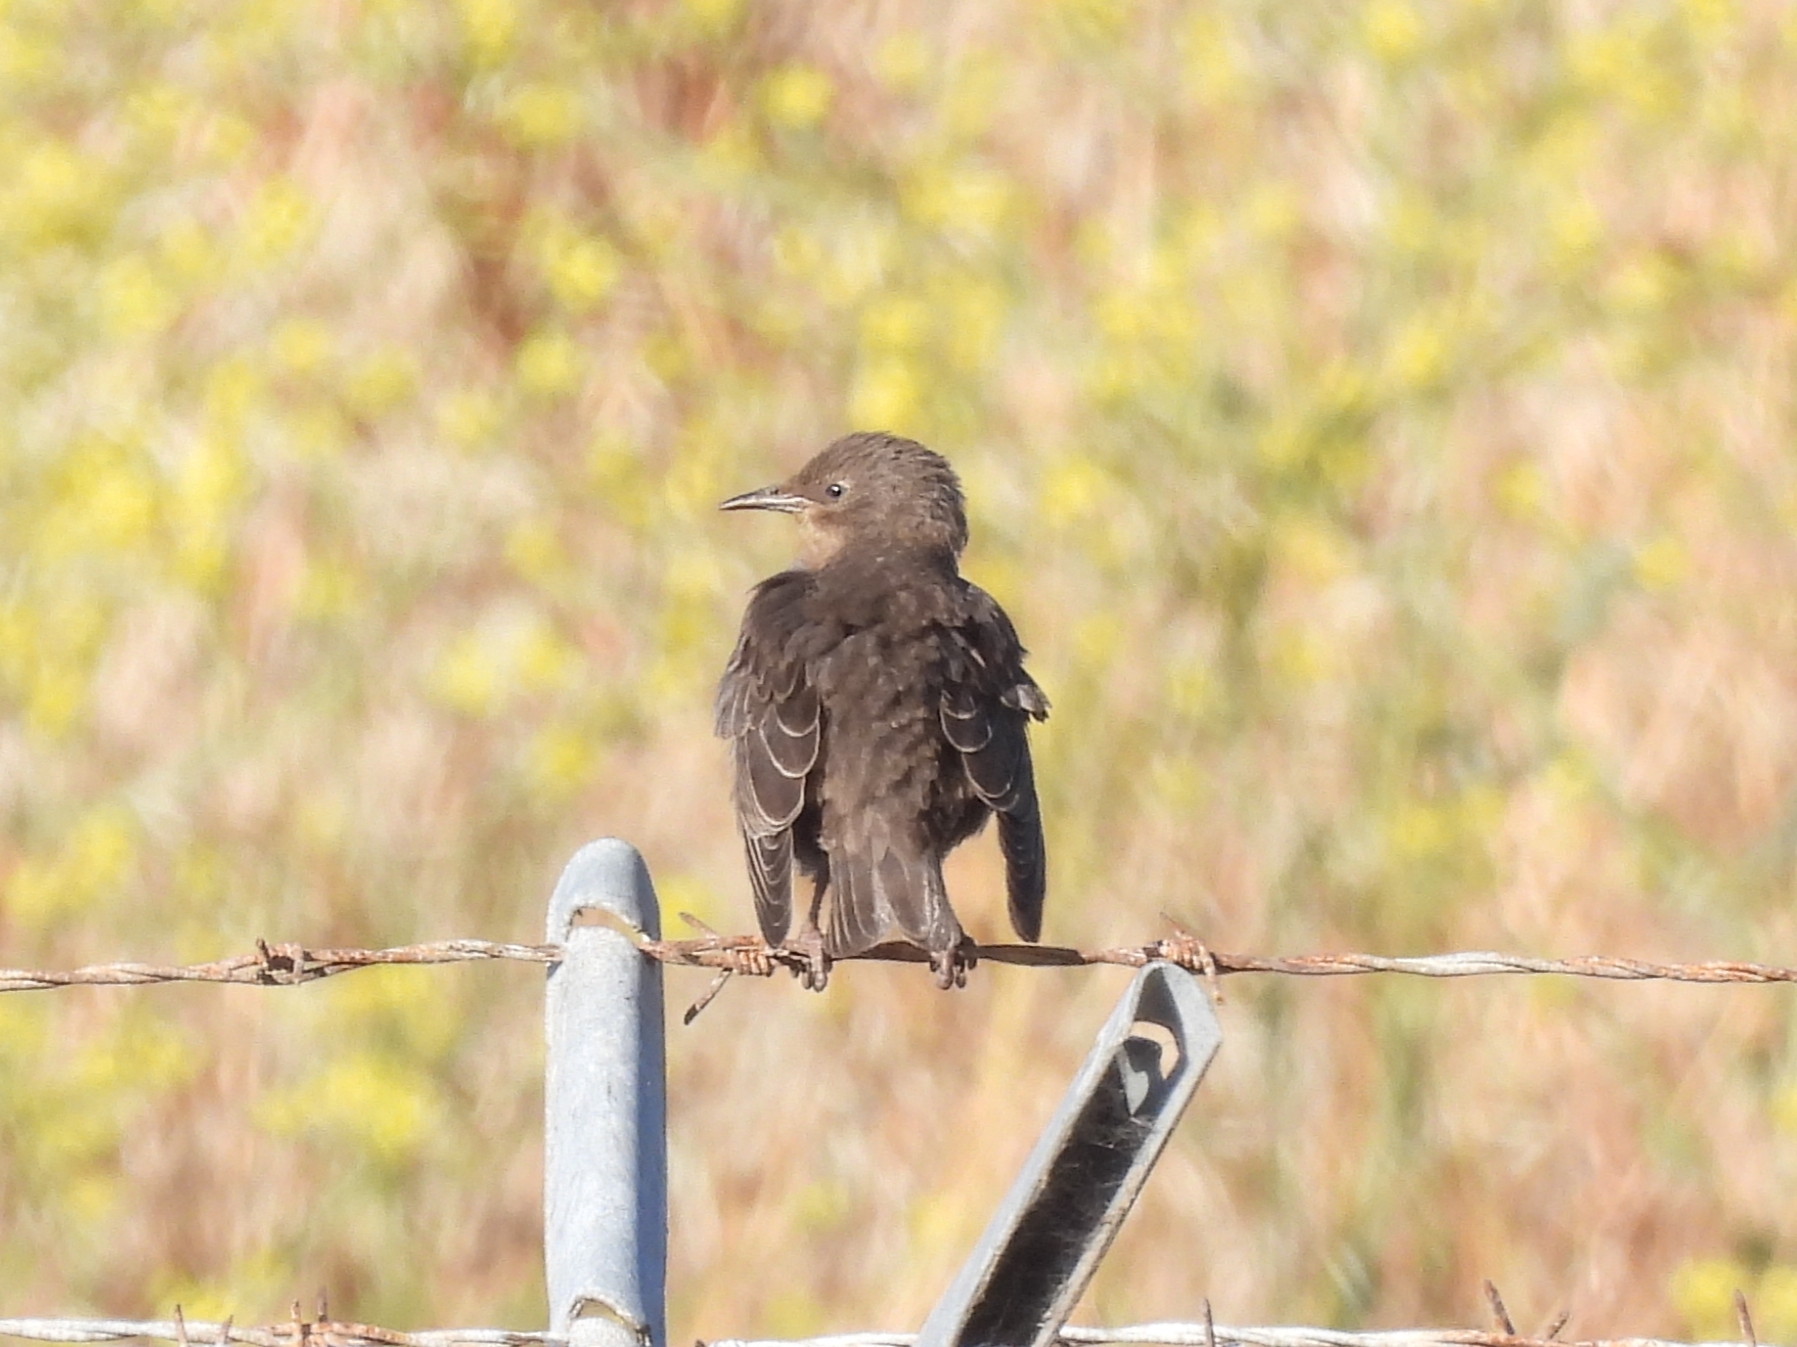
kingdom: Animalia
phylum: Chordata
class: Aves
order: Passeriformes
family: Sturnidae
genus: Sturnus
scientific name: Sturnus vulgaris
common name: Common starling
